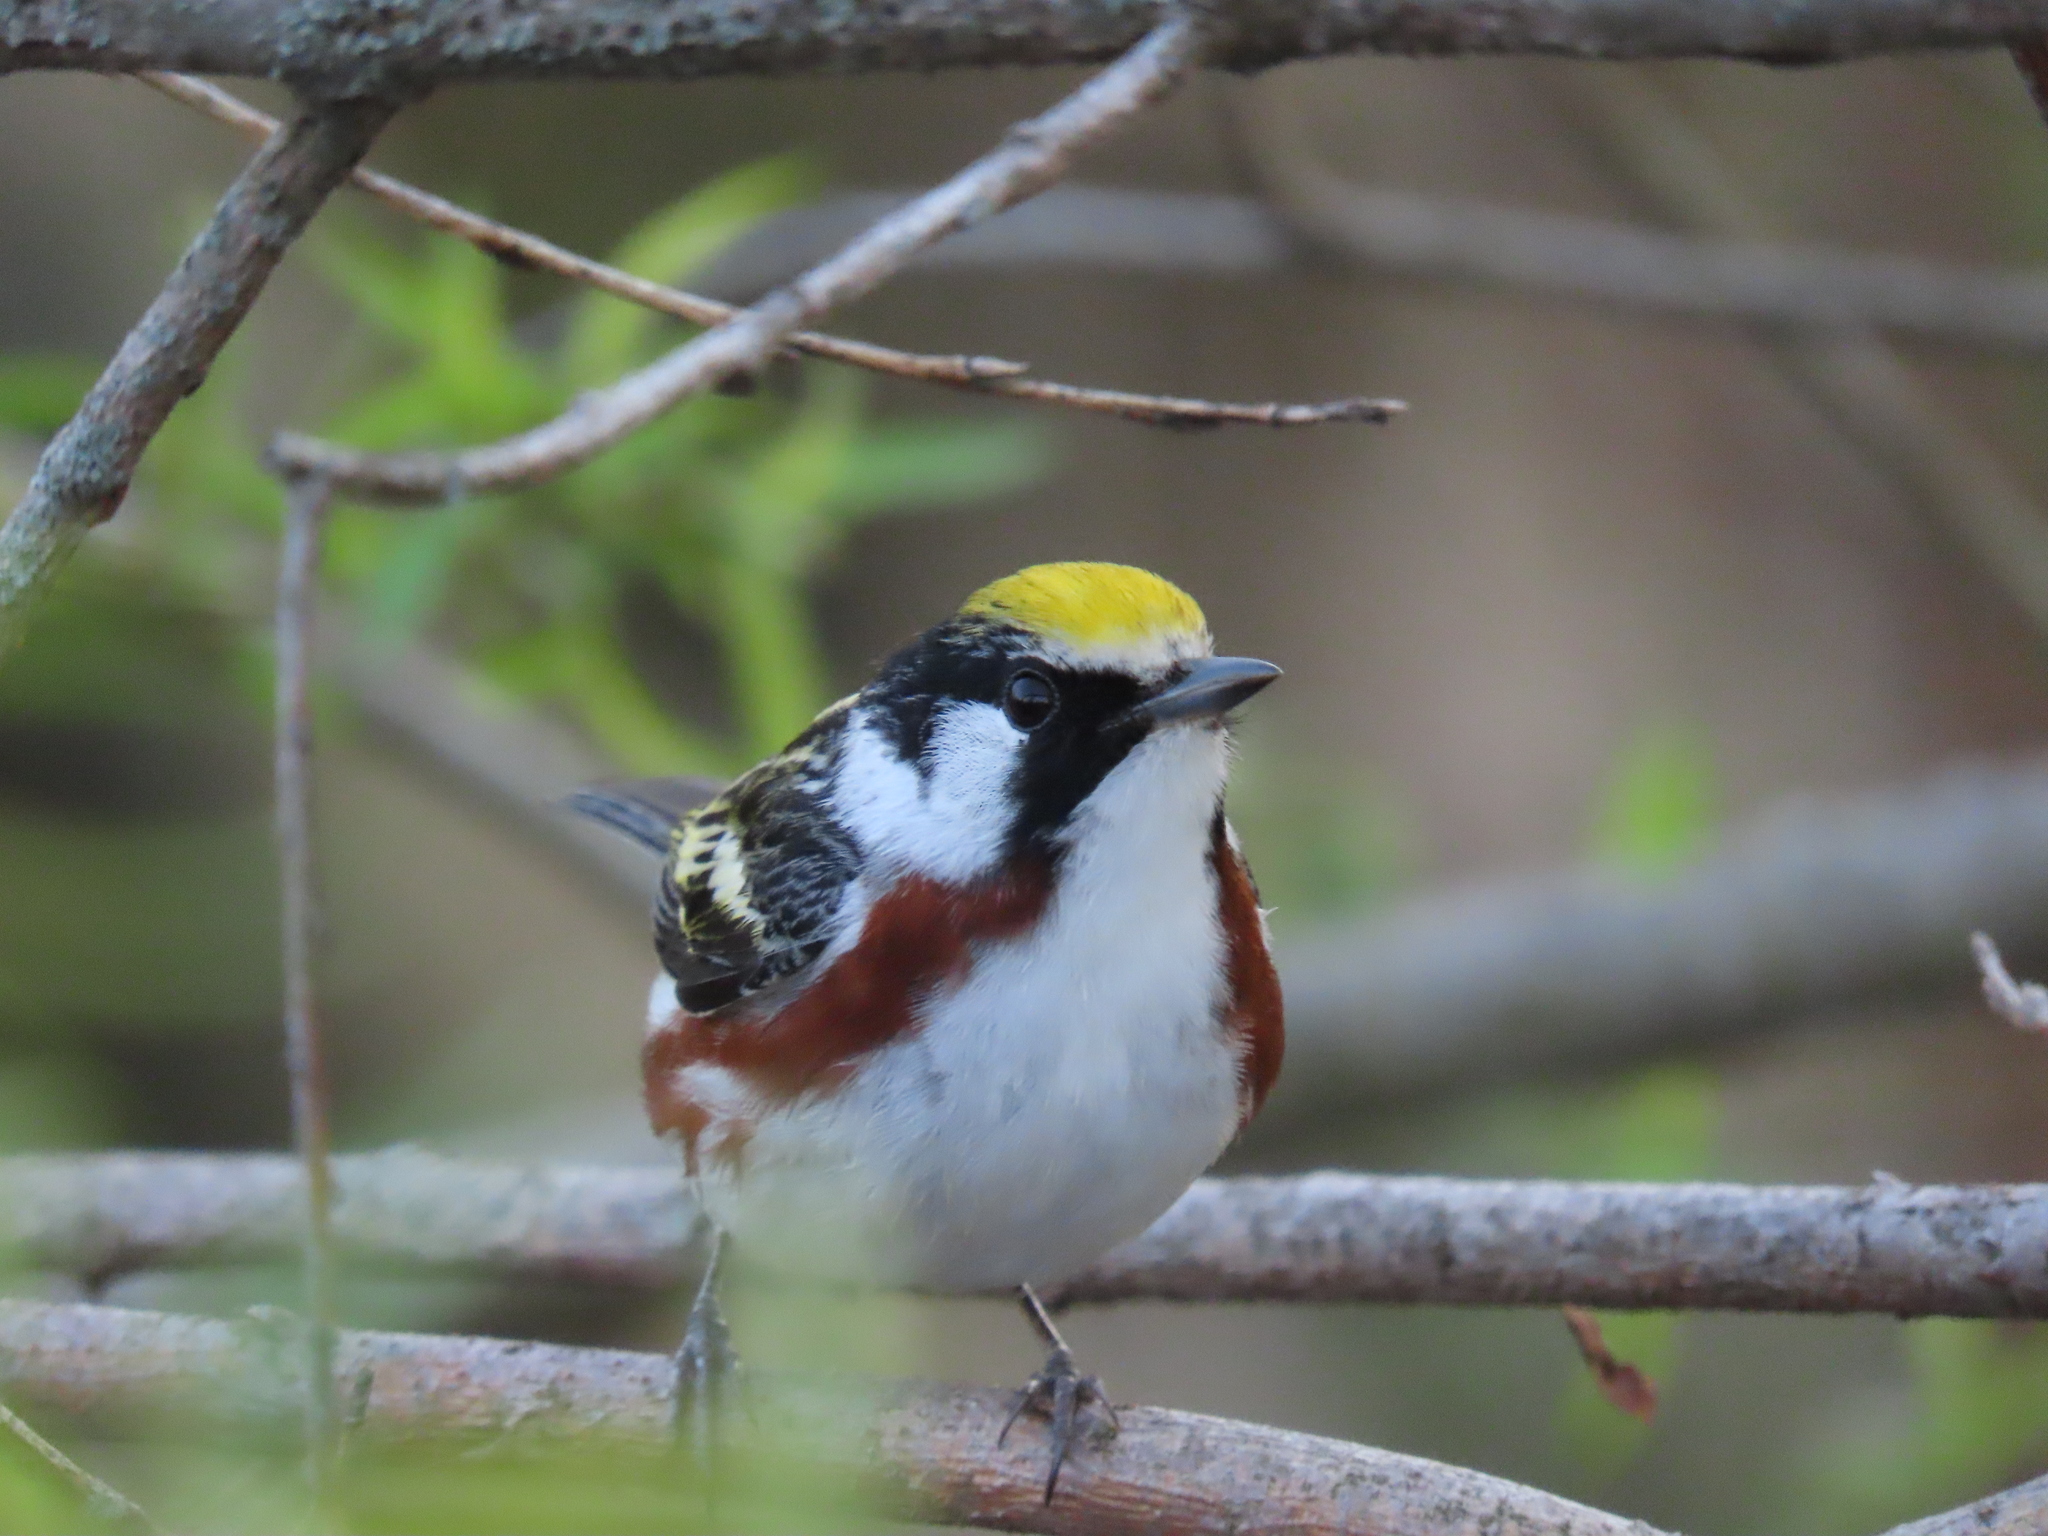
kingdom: Animalia
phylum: Chordata
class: Aves
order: Passeriformes
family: Parulidae
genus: Setophaga
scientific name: Setophaga pensylvanica
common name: Chestnut-sided warbler
